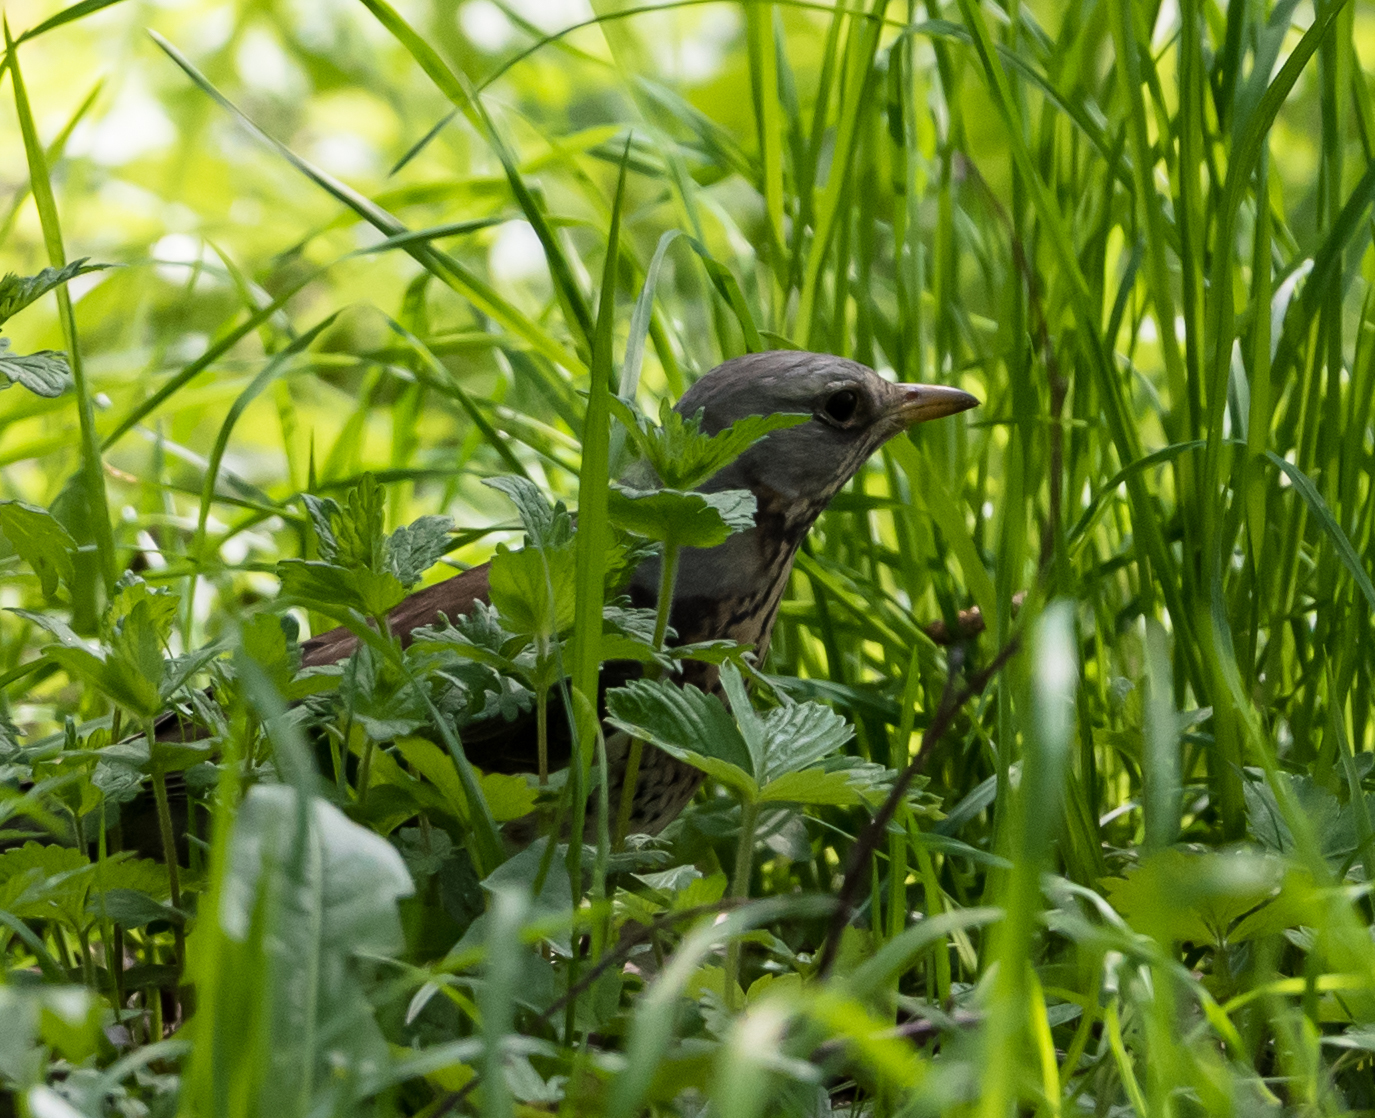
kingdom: Animalia
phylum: Chordata
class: Aves
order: Passeriformes
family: Turdidae
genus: Turdus
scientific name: Turdus pilaris
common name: Fieldfare
